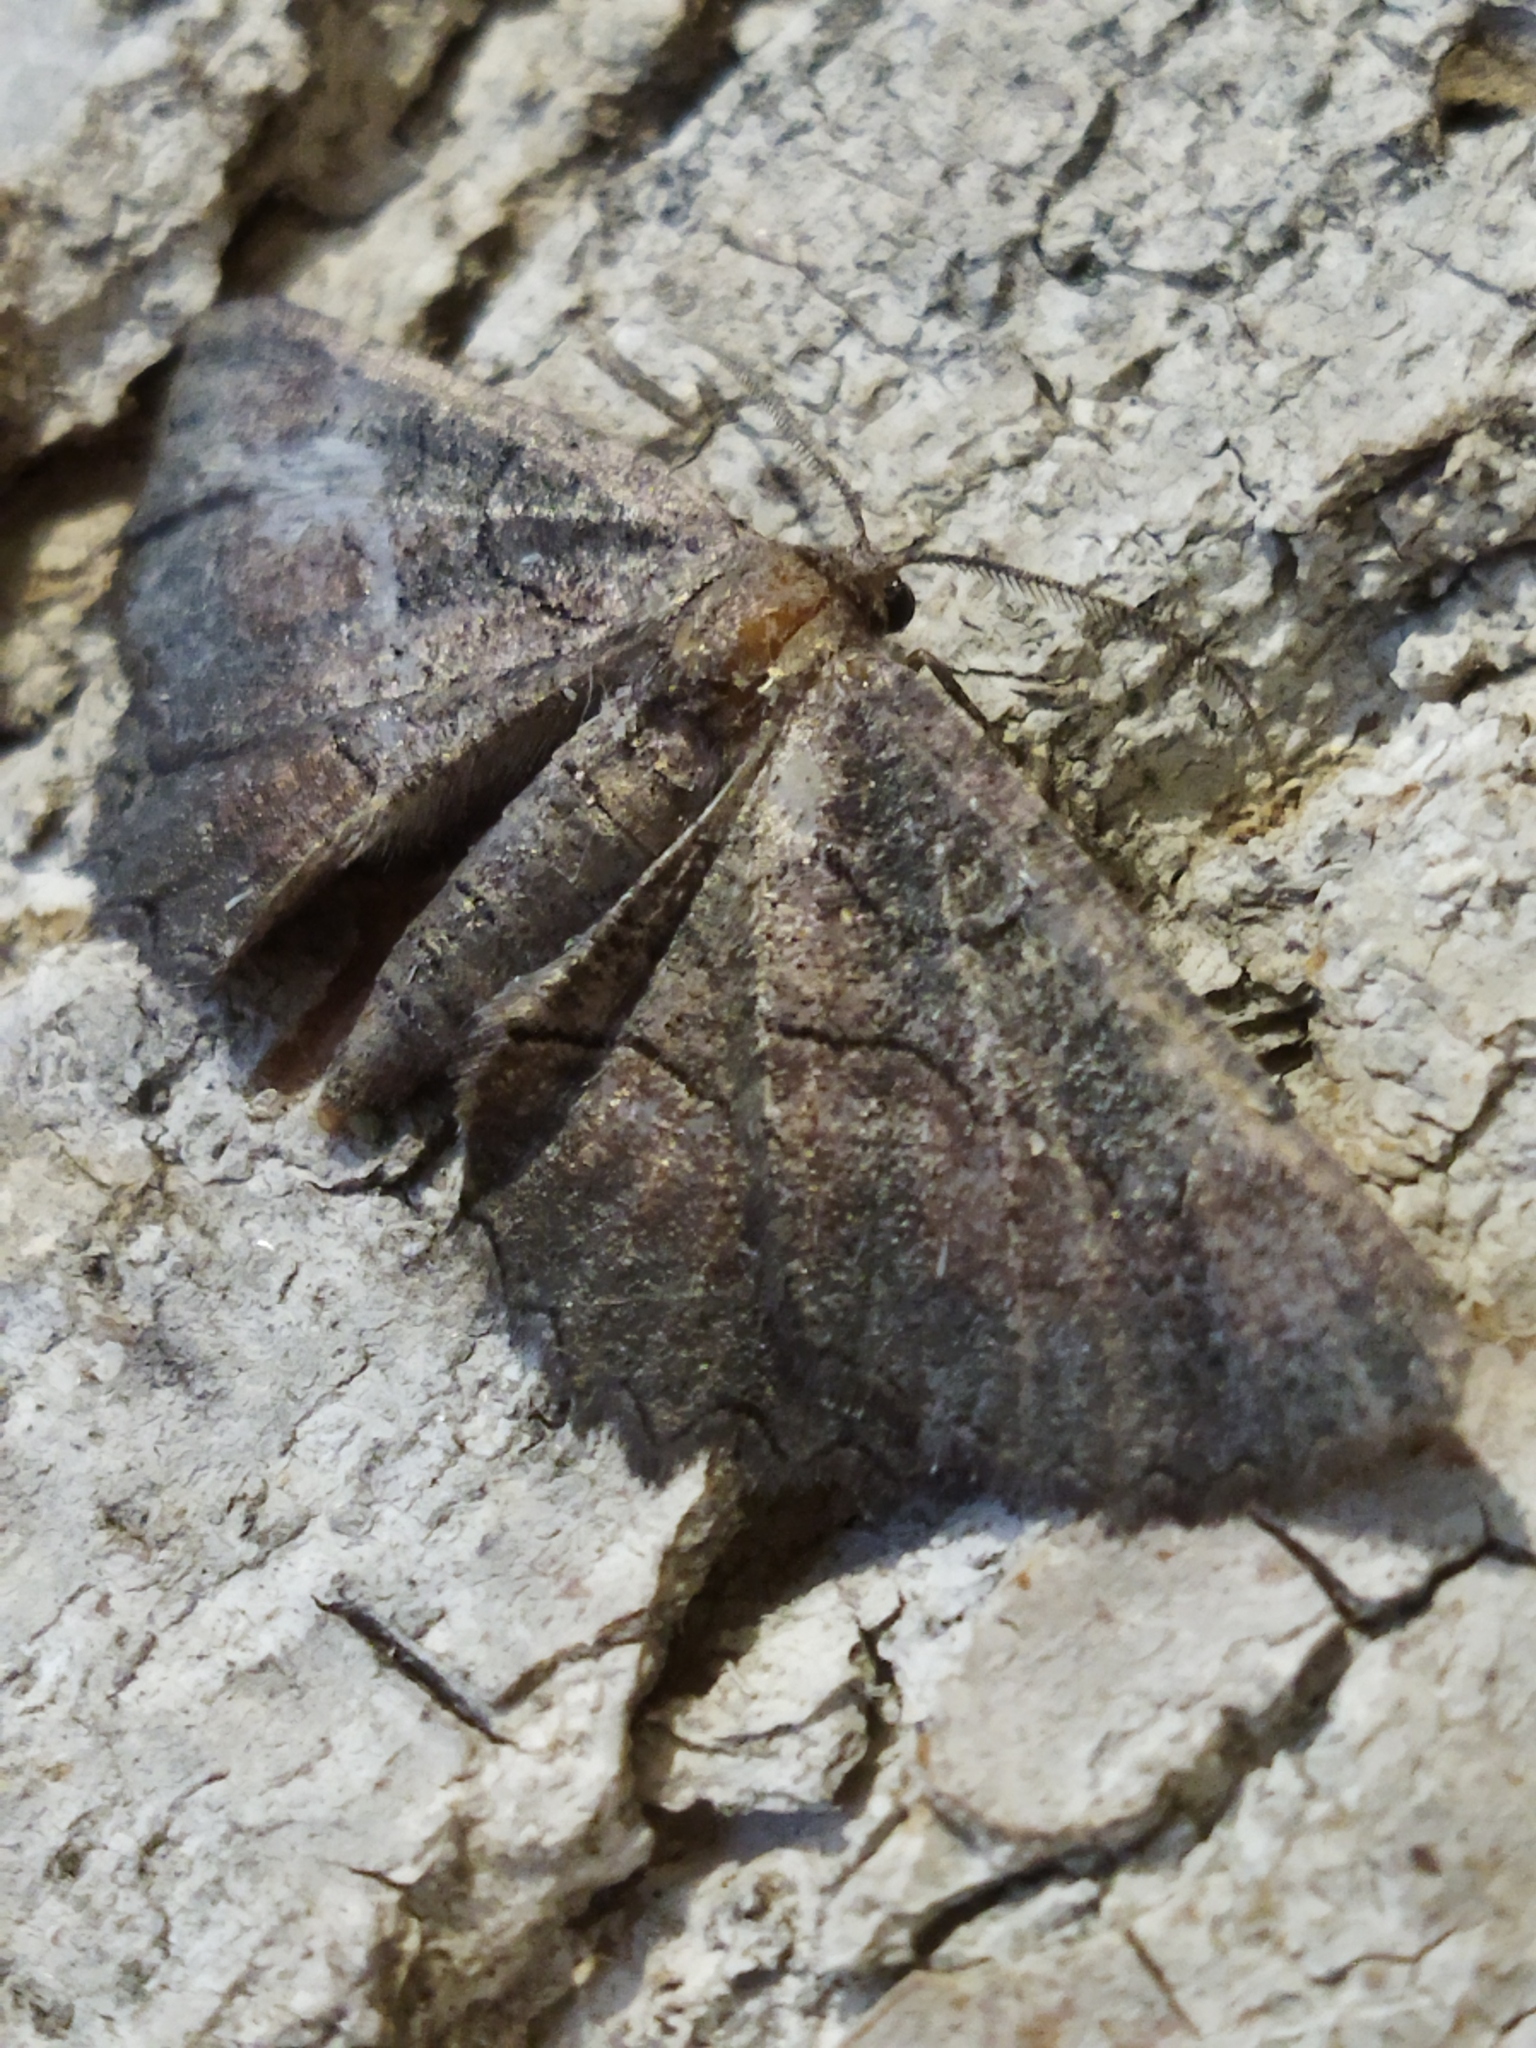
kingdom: Animalia
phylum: Arthropoda
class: Insecta
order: Lepidoptera
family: Geometridae
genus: Nychiodes
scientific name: Nychiodes waltheri
